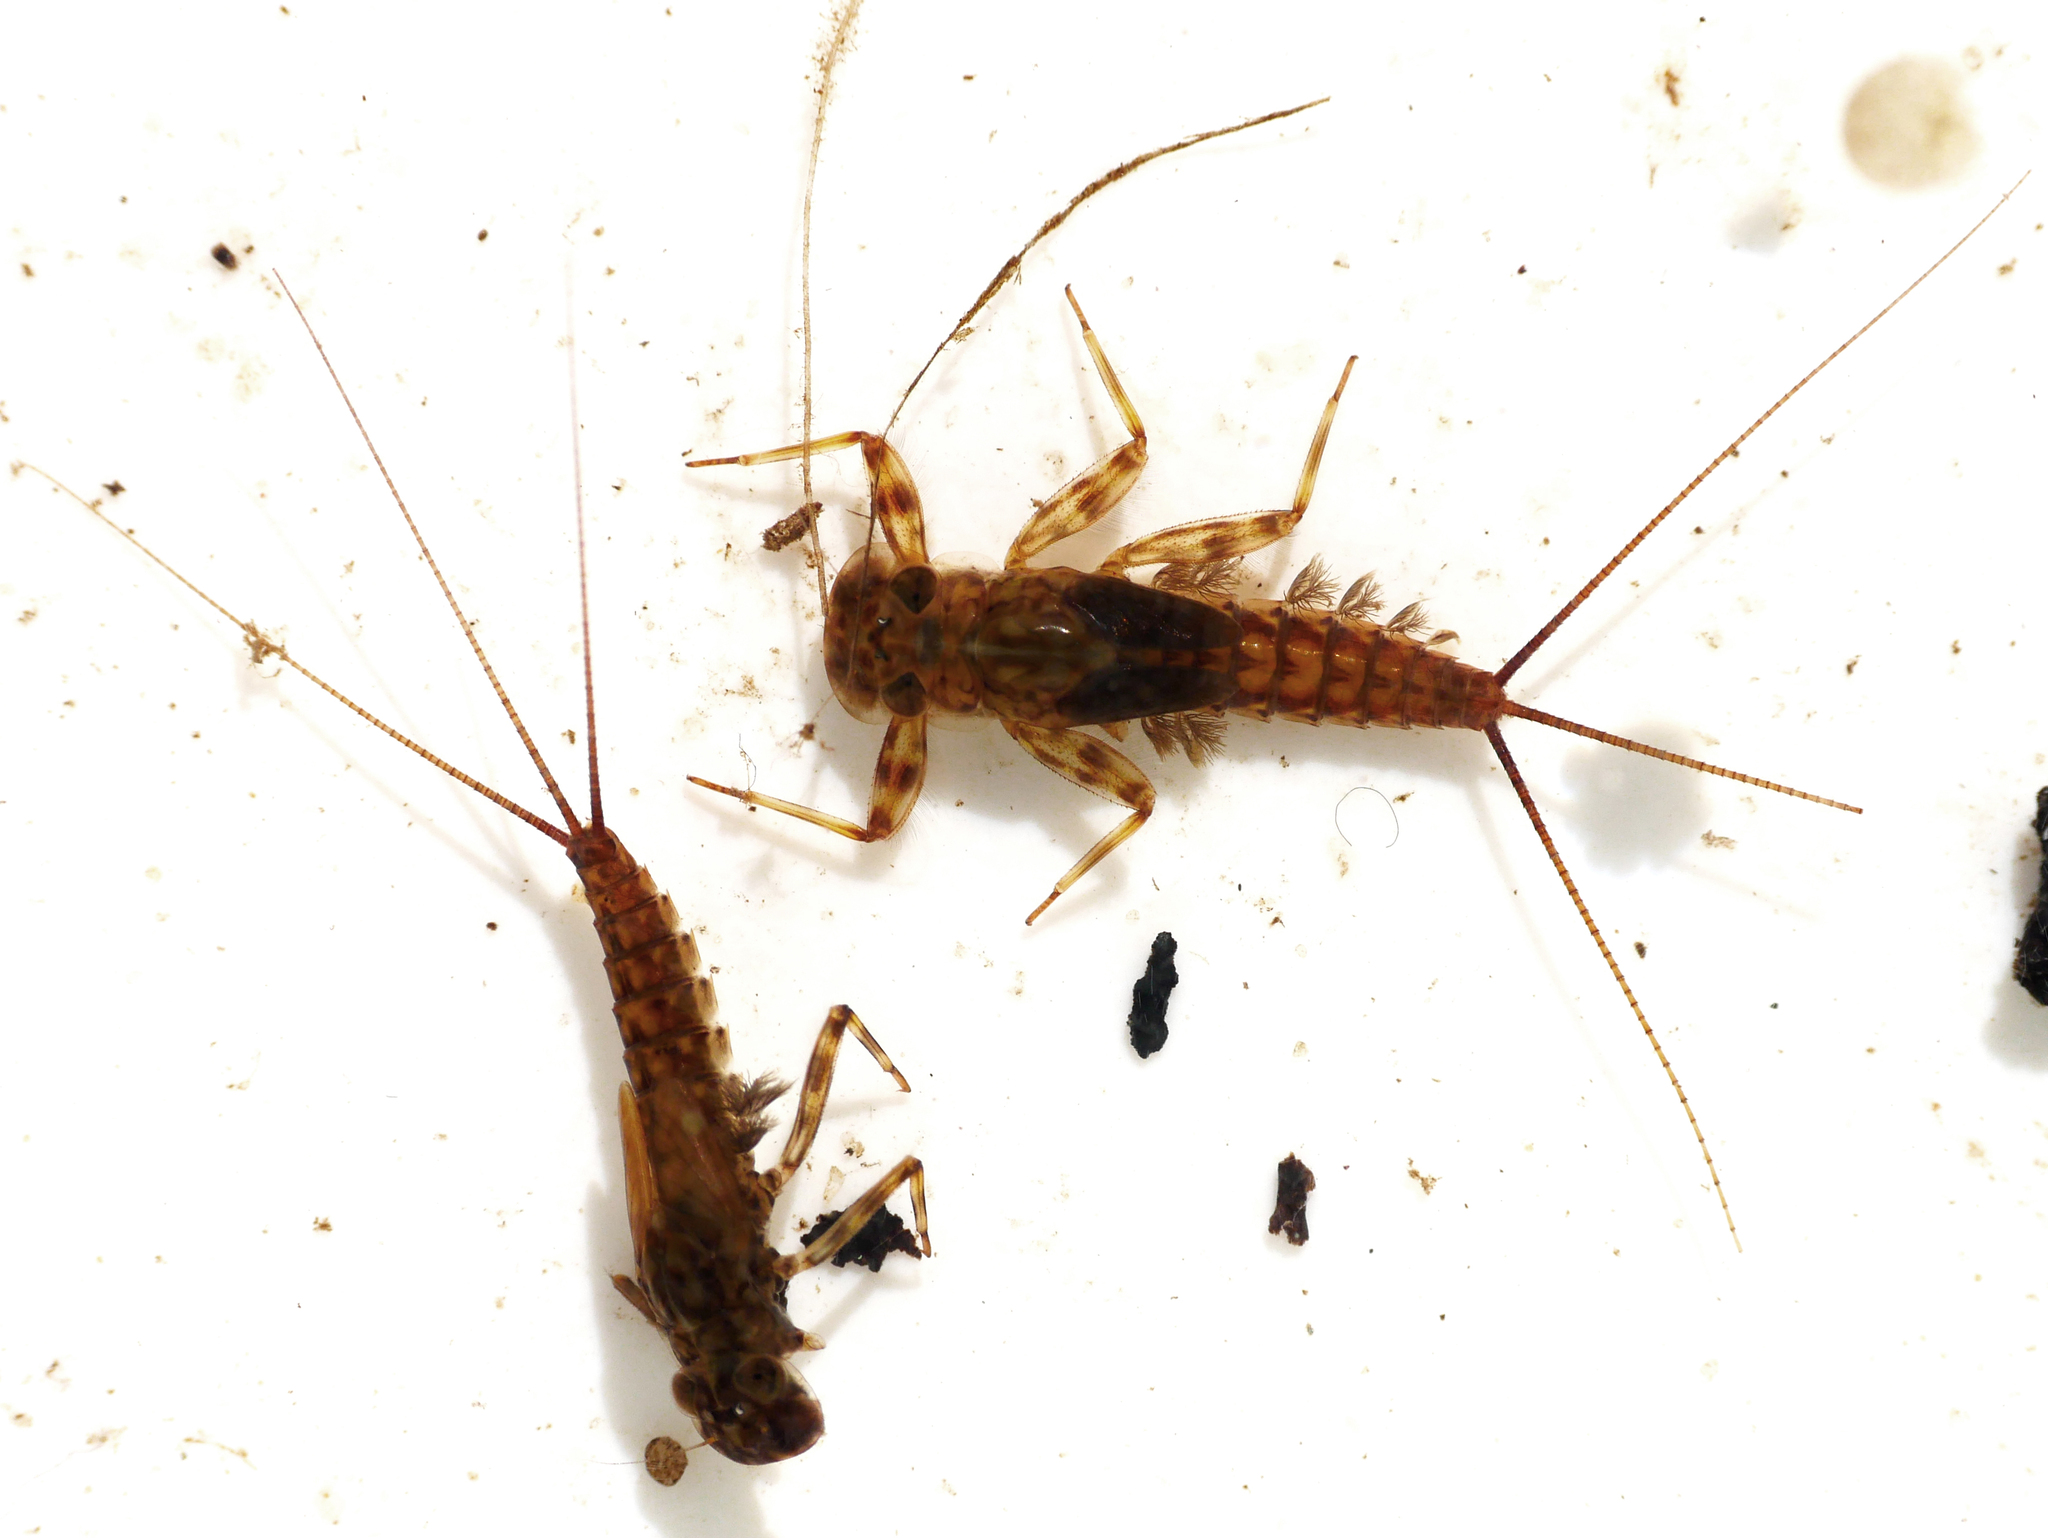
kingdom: Animalia
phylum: Arthropoda
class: Insecta
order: Ephemeroptera
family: Heptageniidae
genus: Electrogena
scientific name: Electrogena affinis
